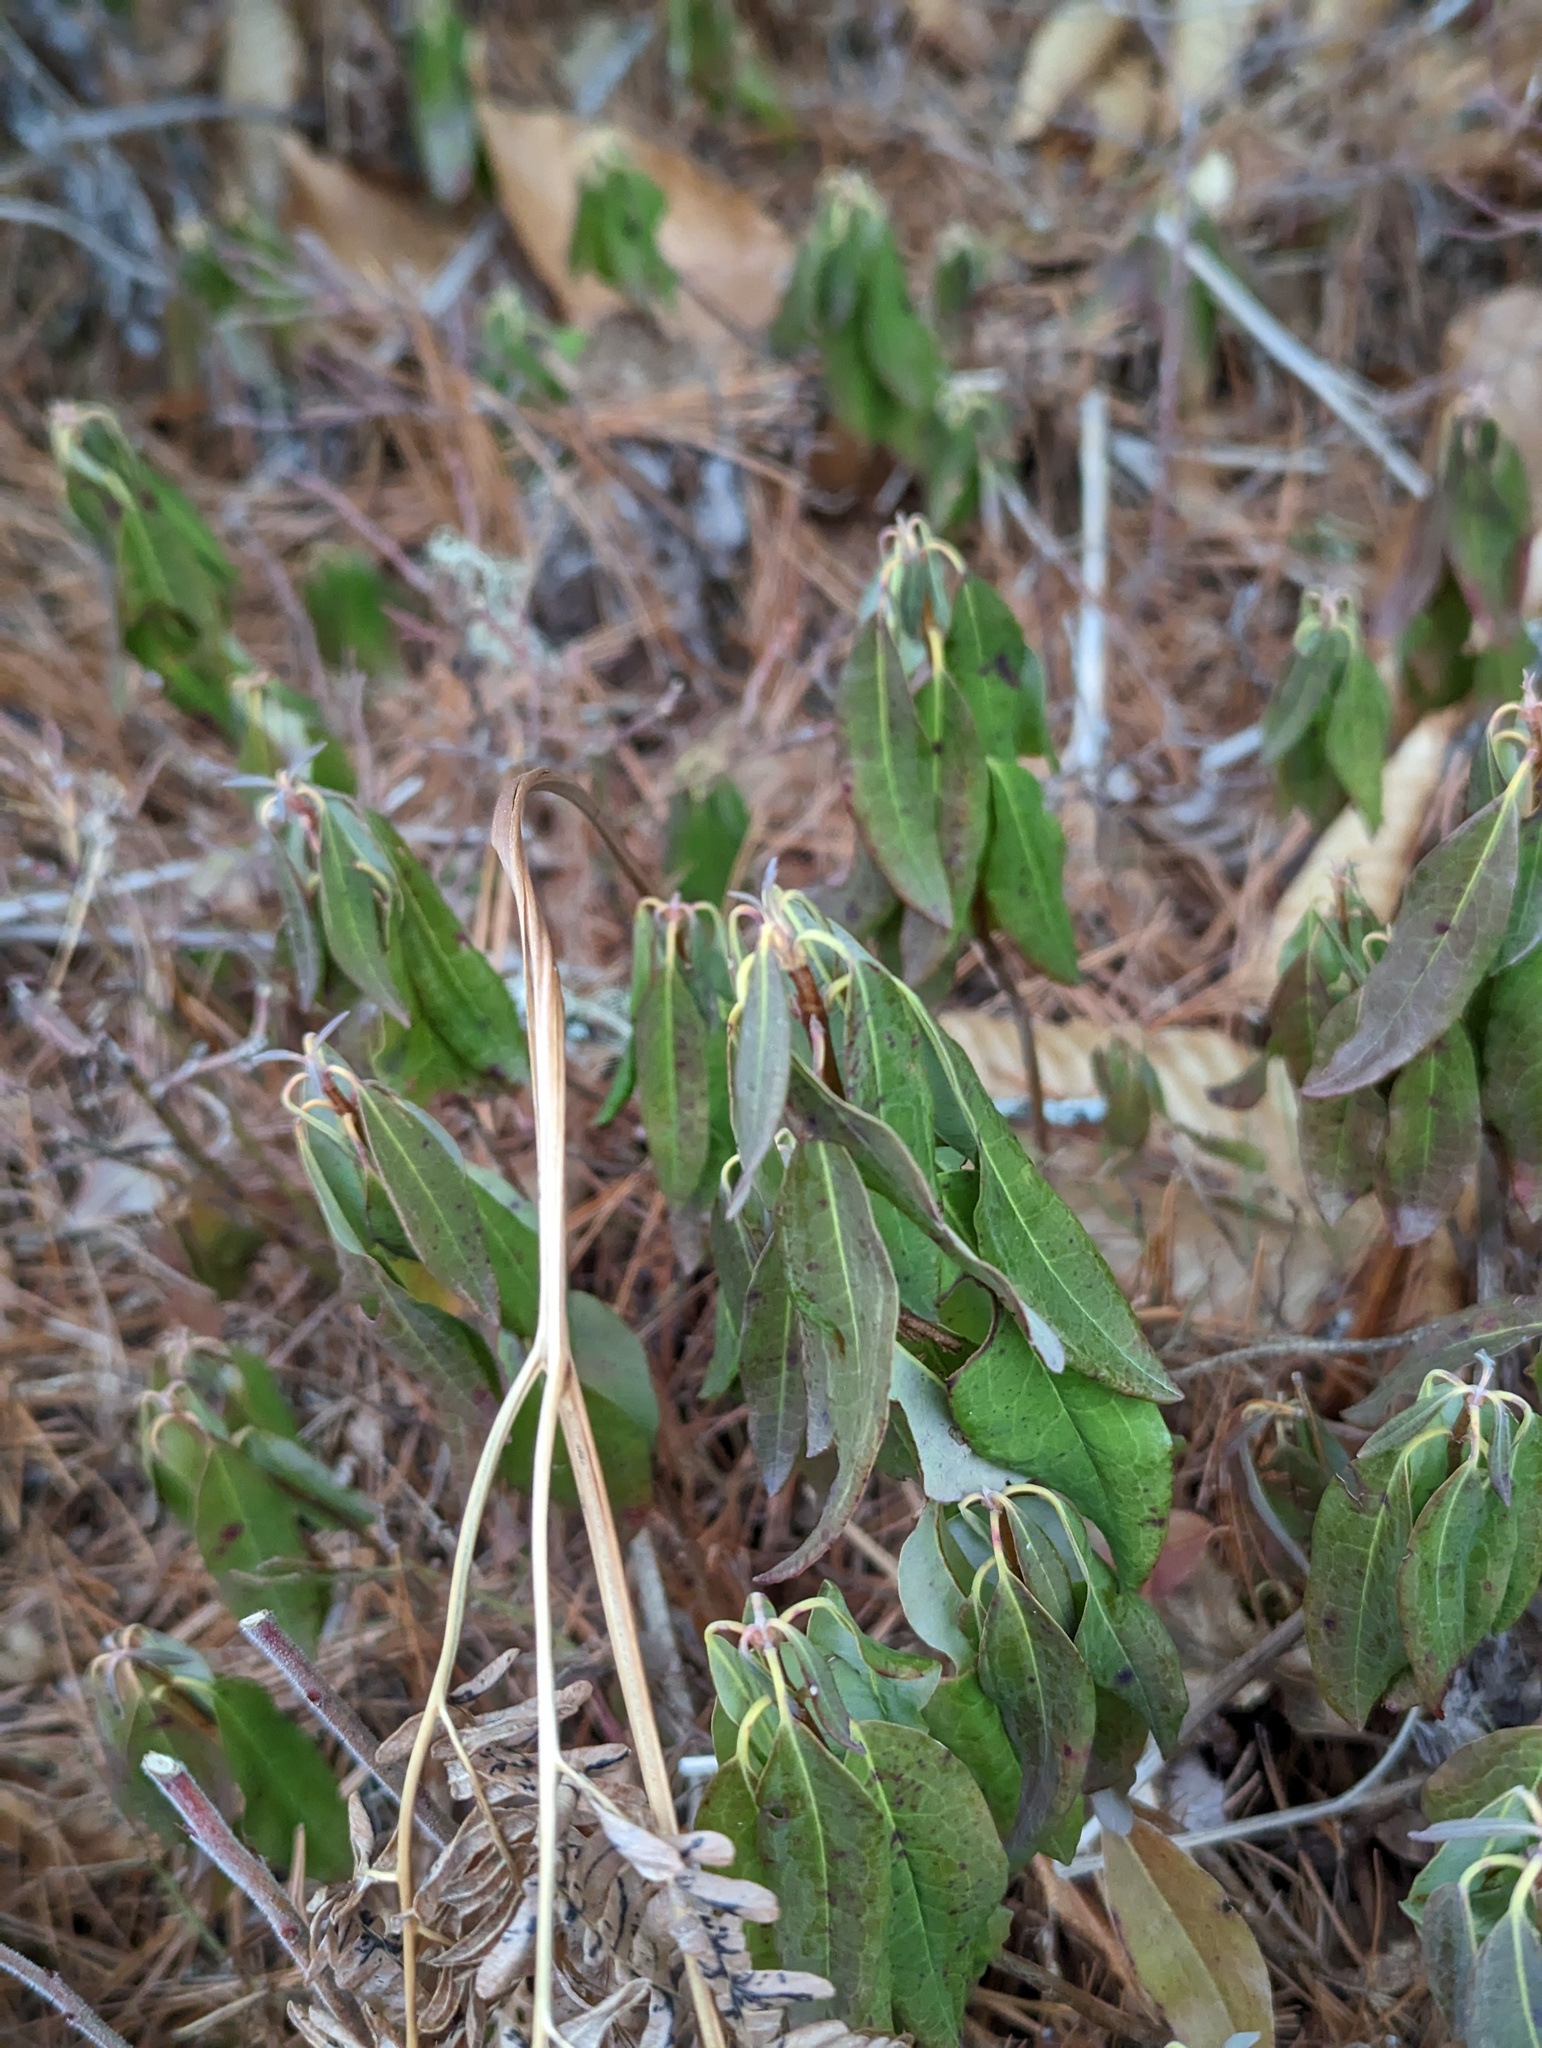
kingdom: Plantae
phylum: Tracheophyta
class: Magnoliopsida
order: Ericales
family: Ericaceae
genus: Kalmia
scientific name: Kalmia angustifolia
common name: Sheep-laurel
